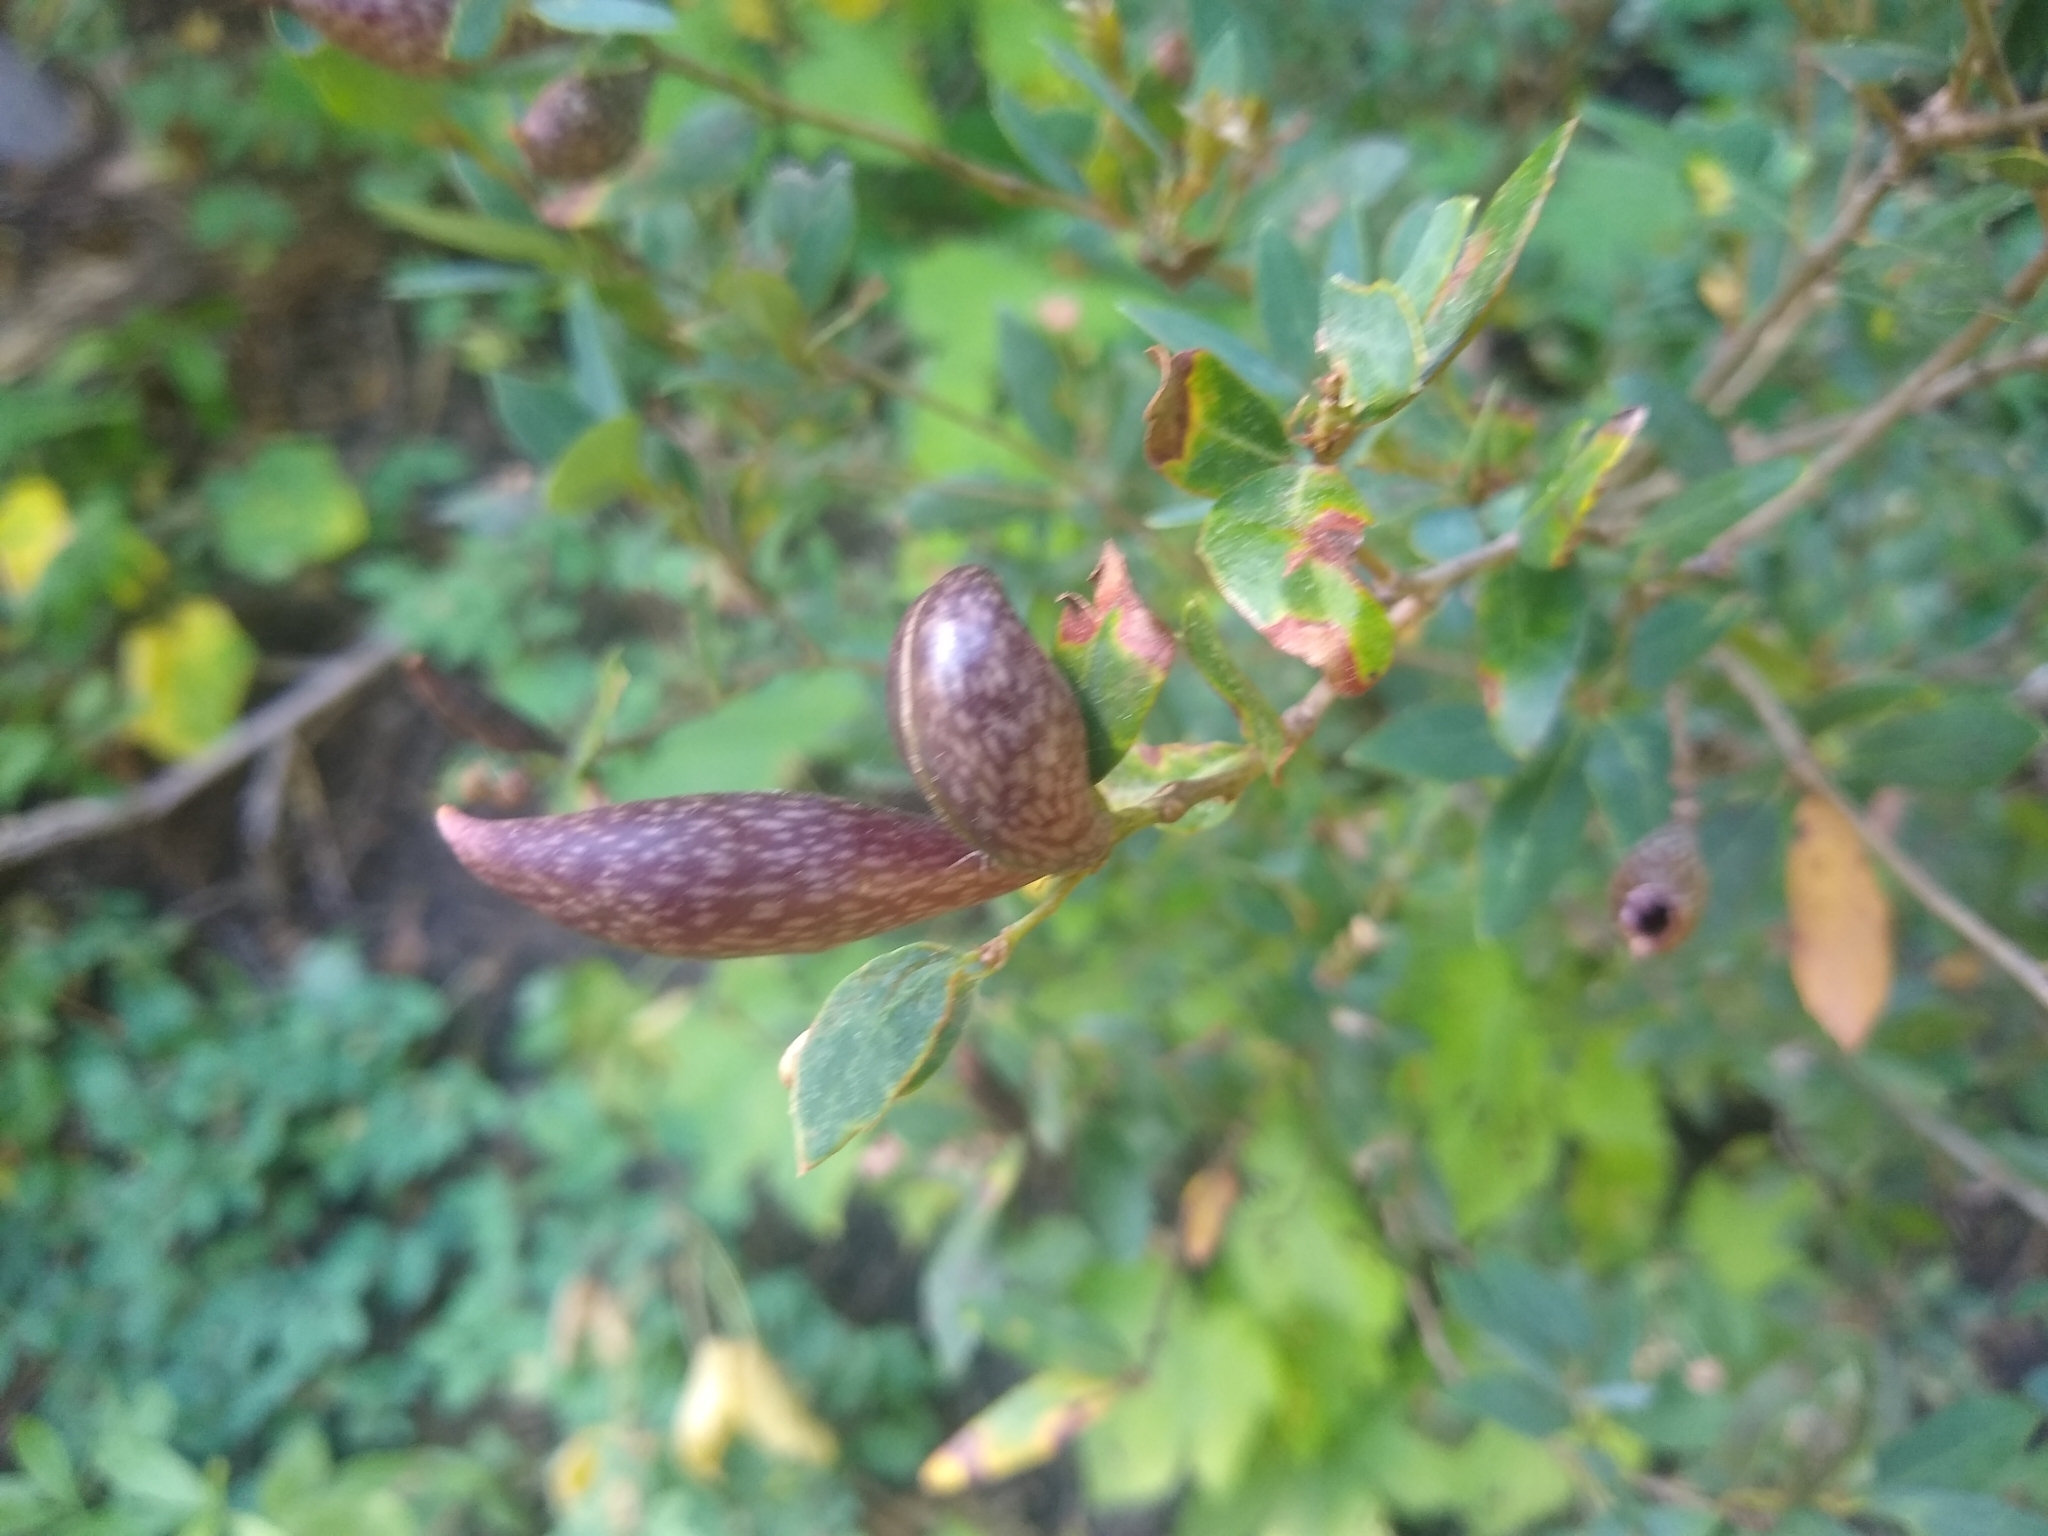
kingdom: Animalia
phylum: Arthropoda
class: Insecta
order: Hymenoptera
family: Cynipidae
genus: Heteroecus
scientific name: Heteroecus pacificus
